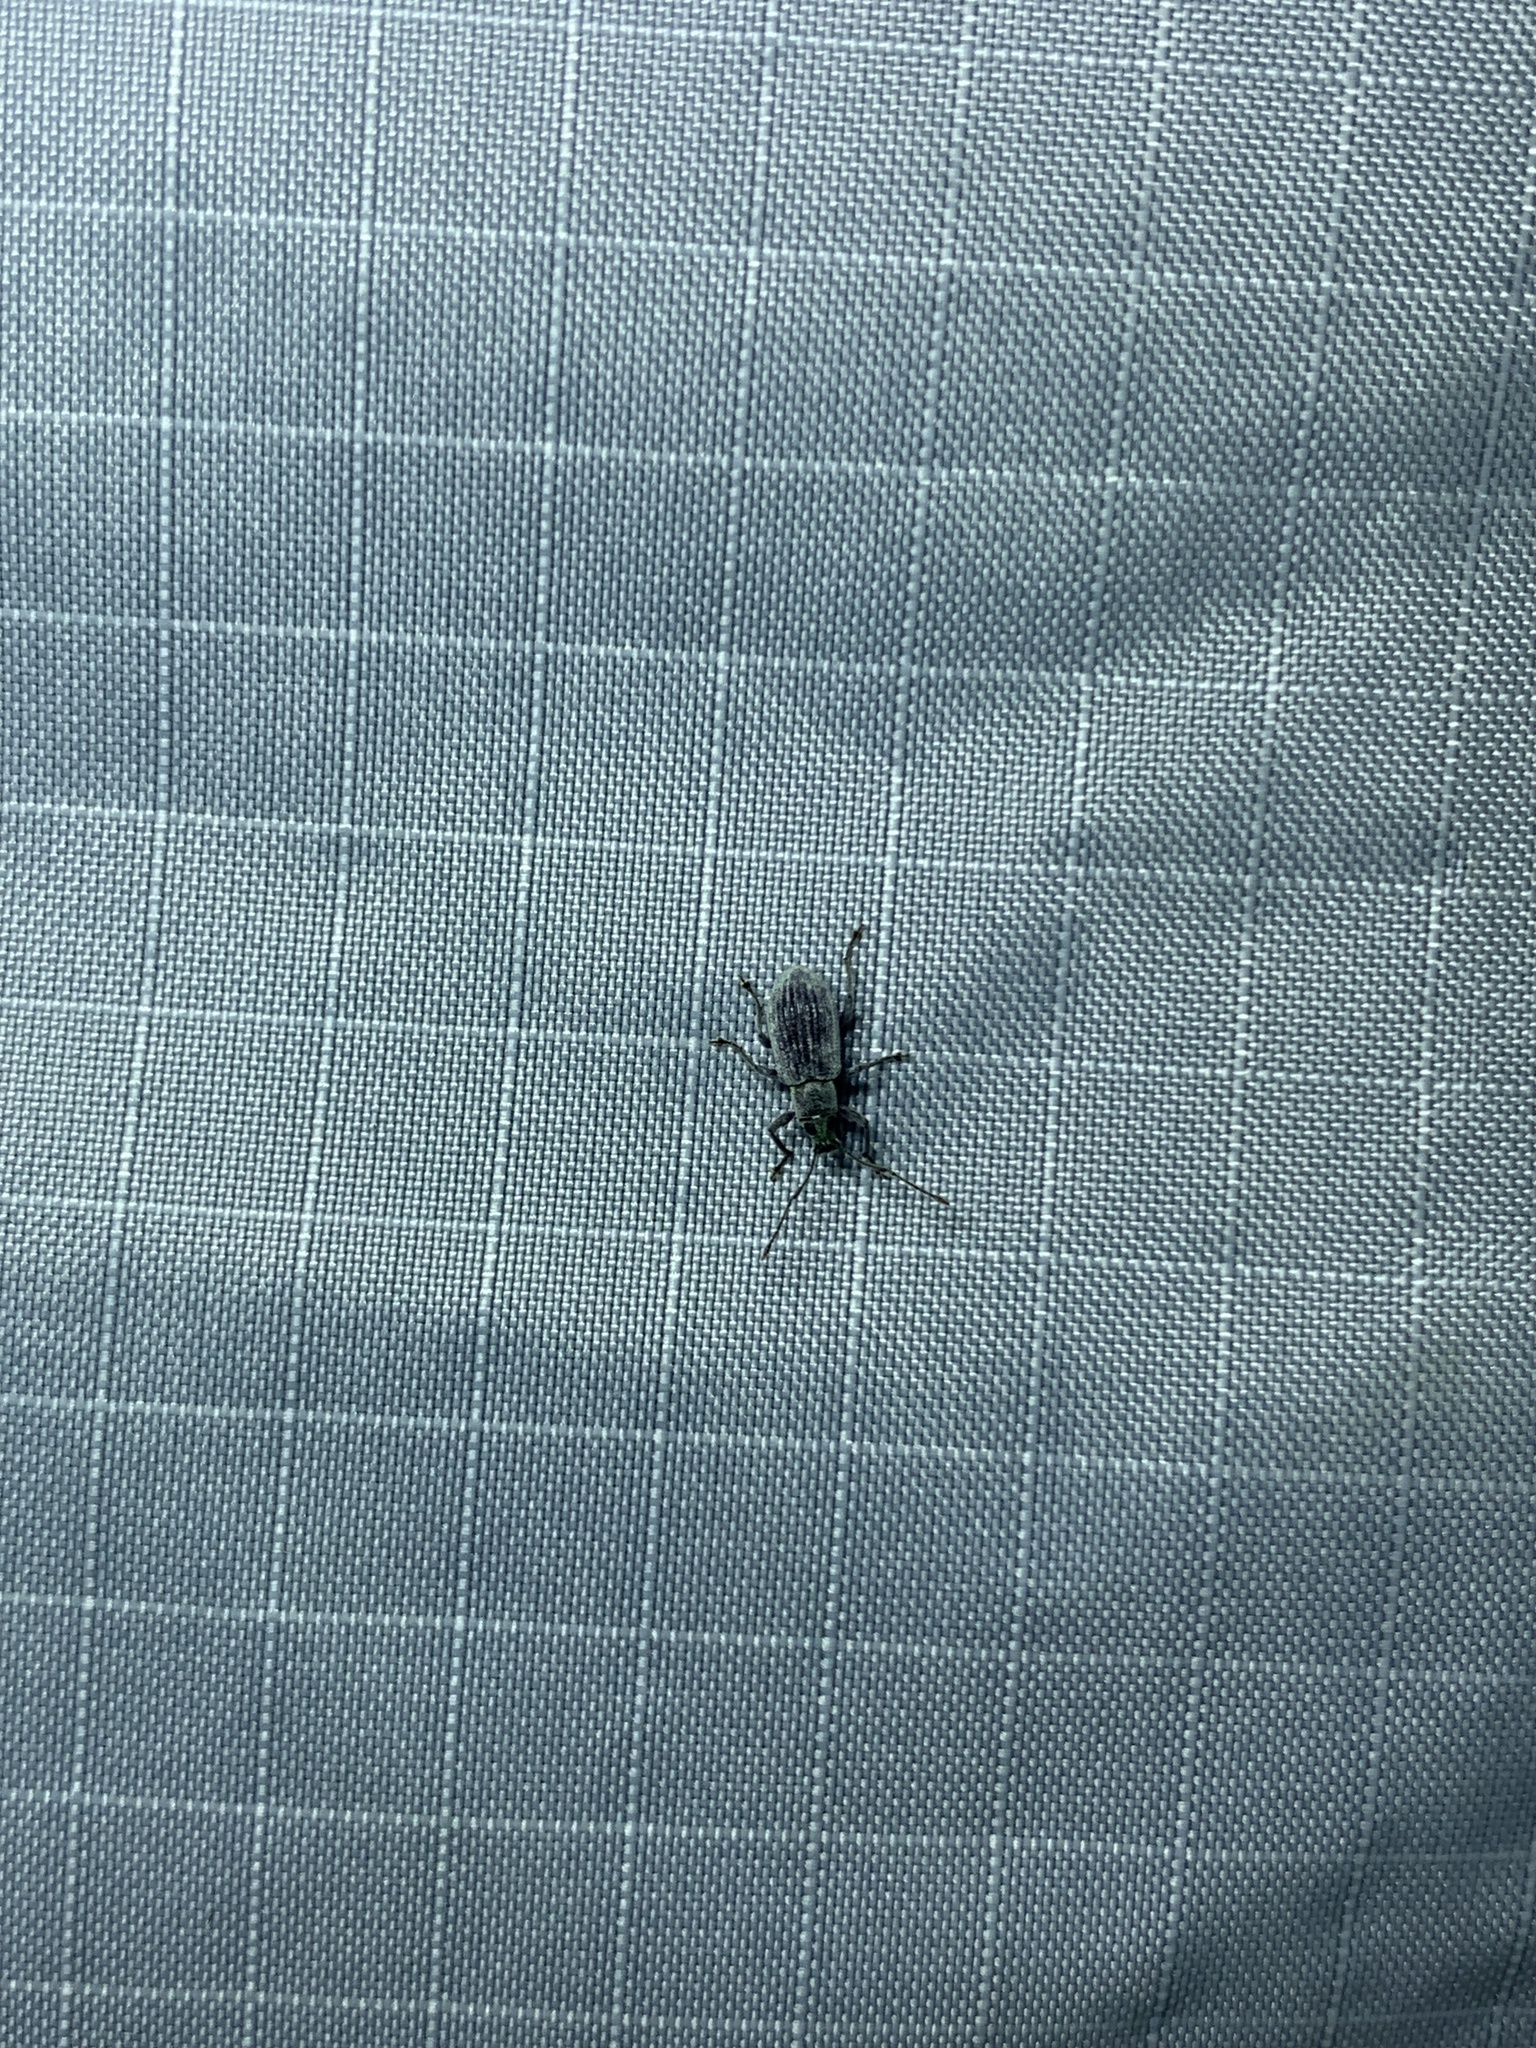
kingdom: Animalia
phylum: Arthropoda
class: Insecta
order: Coleoptera
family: Curculionidae
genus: Cyrtepistomus
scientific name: Cyrtepistomus castaneus
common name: Weevil
